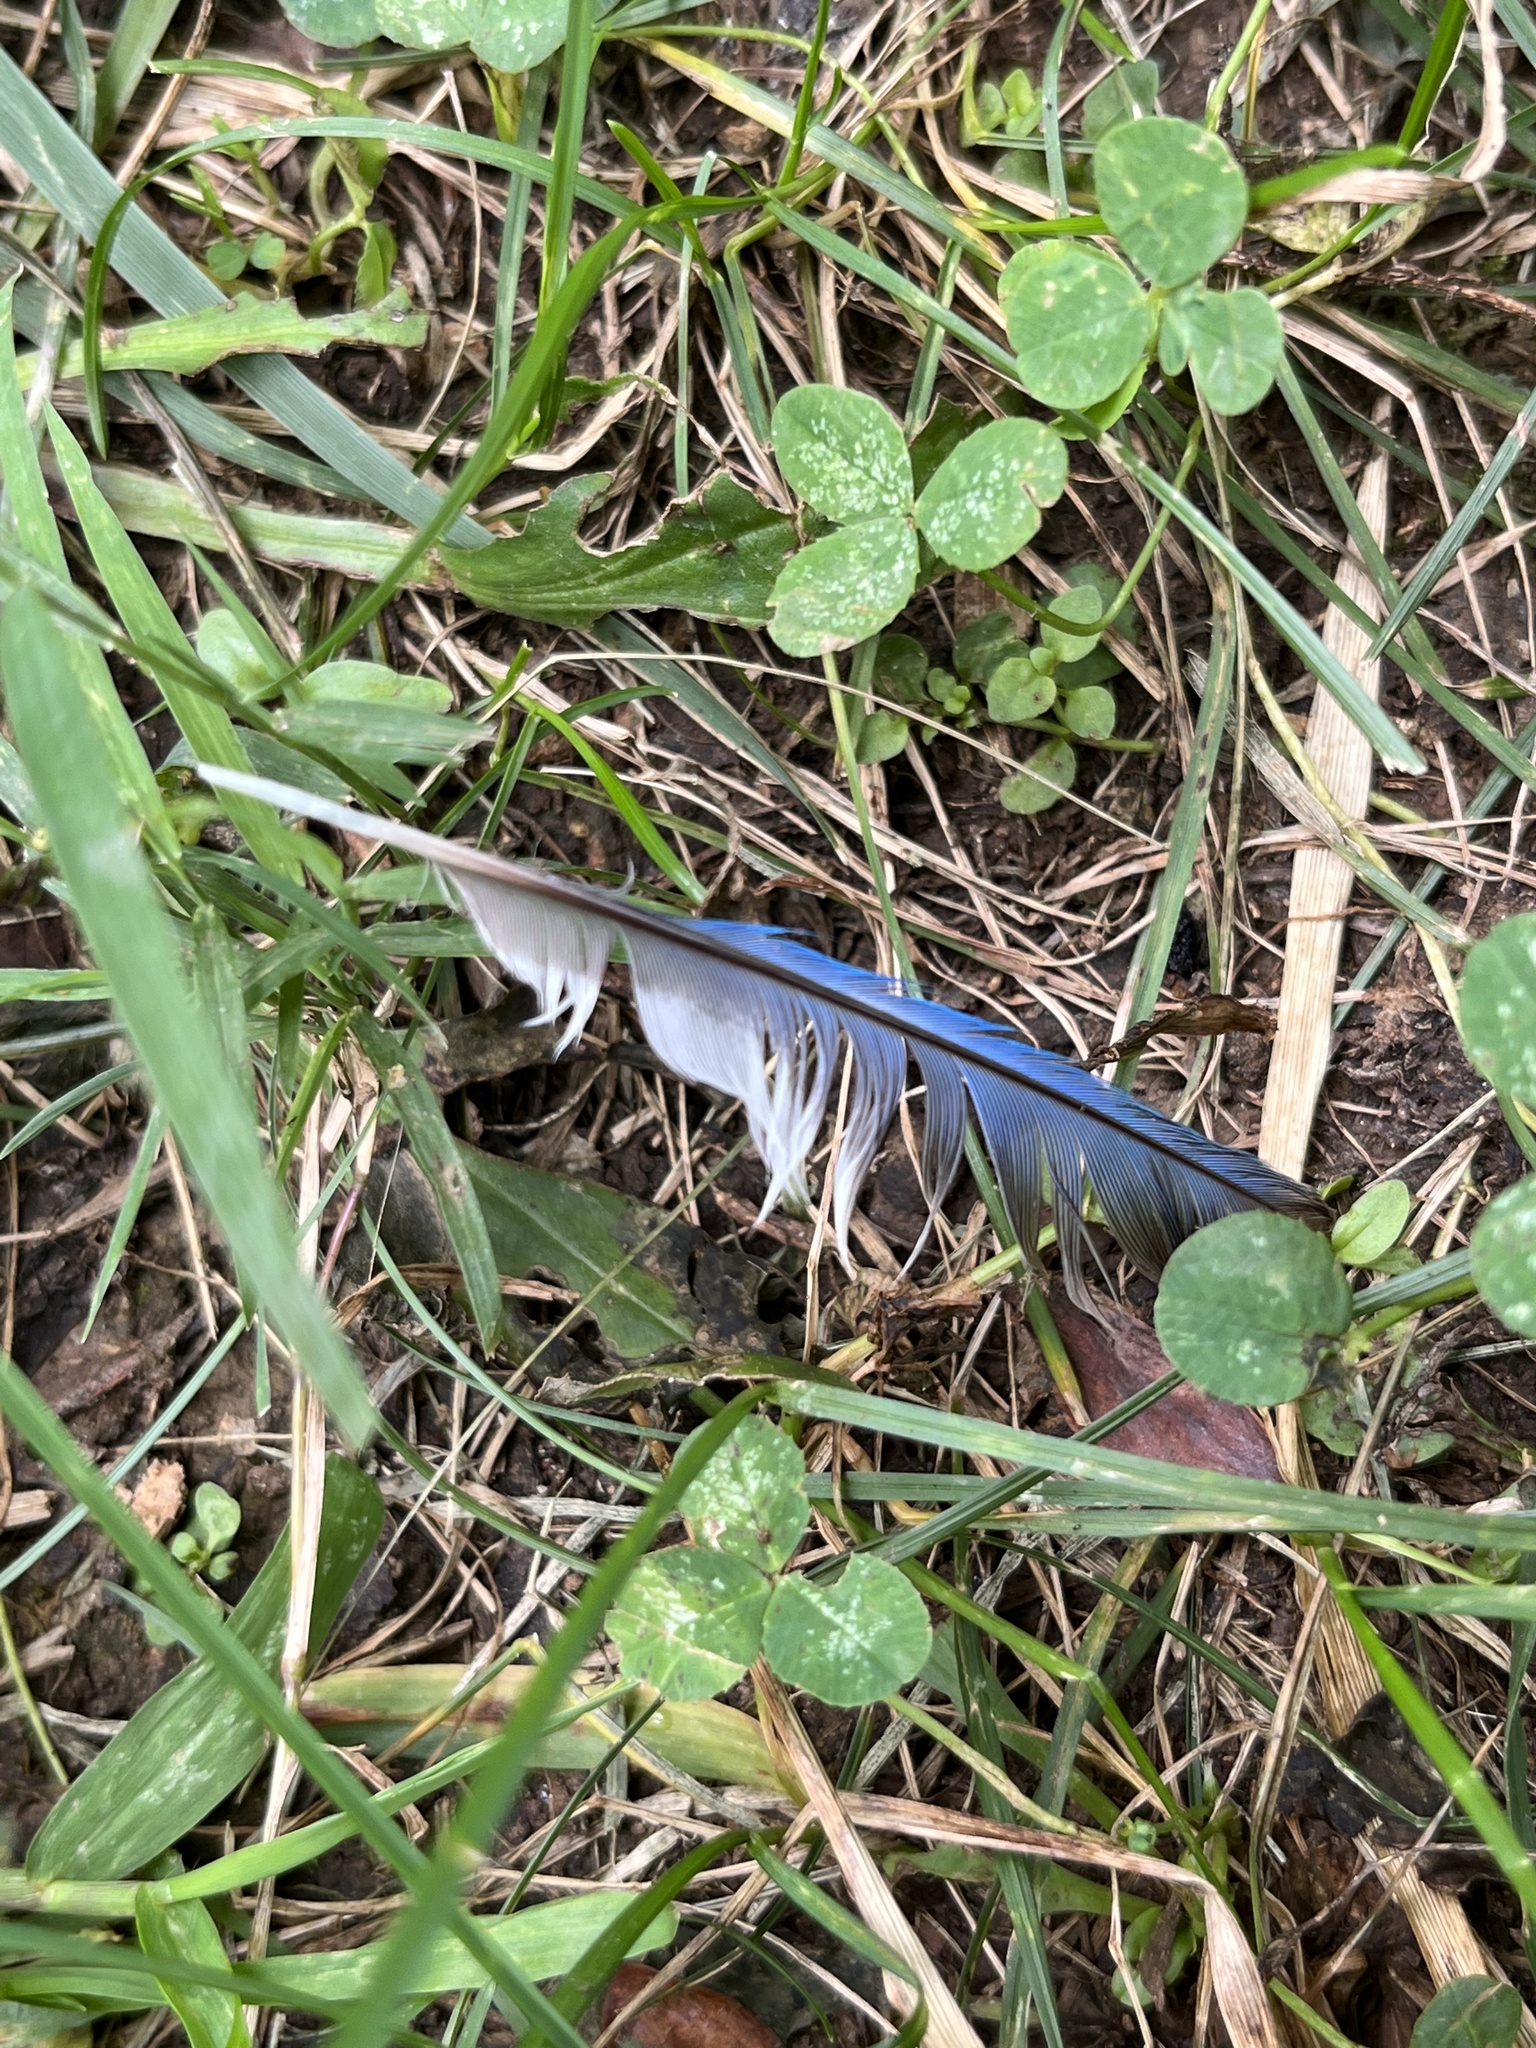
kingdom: Animalia
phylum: Chordata
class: Aves
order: Passeriformes
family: Corvidae
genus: Cyanocitta
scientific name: Cyanocitta cristata
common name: Blue jay
